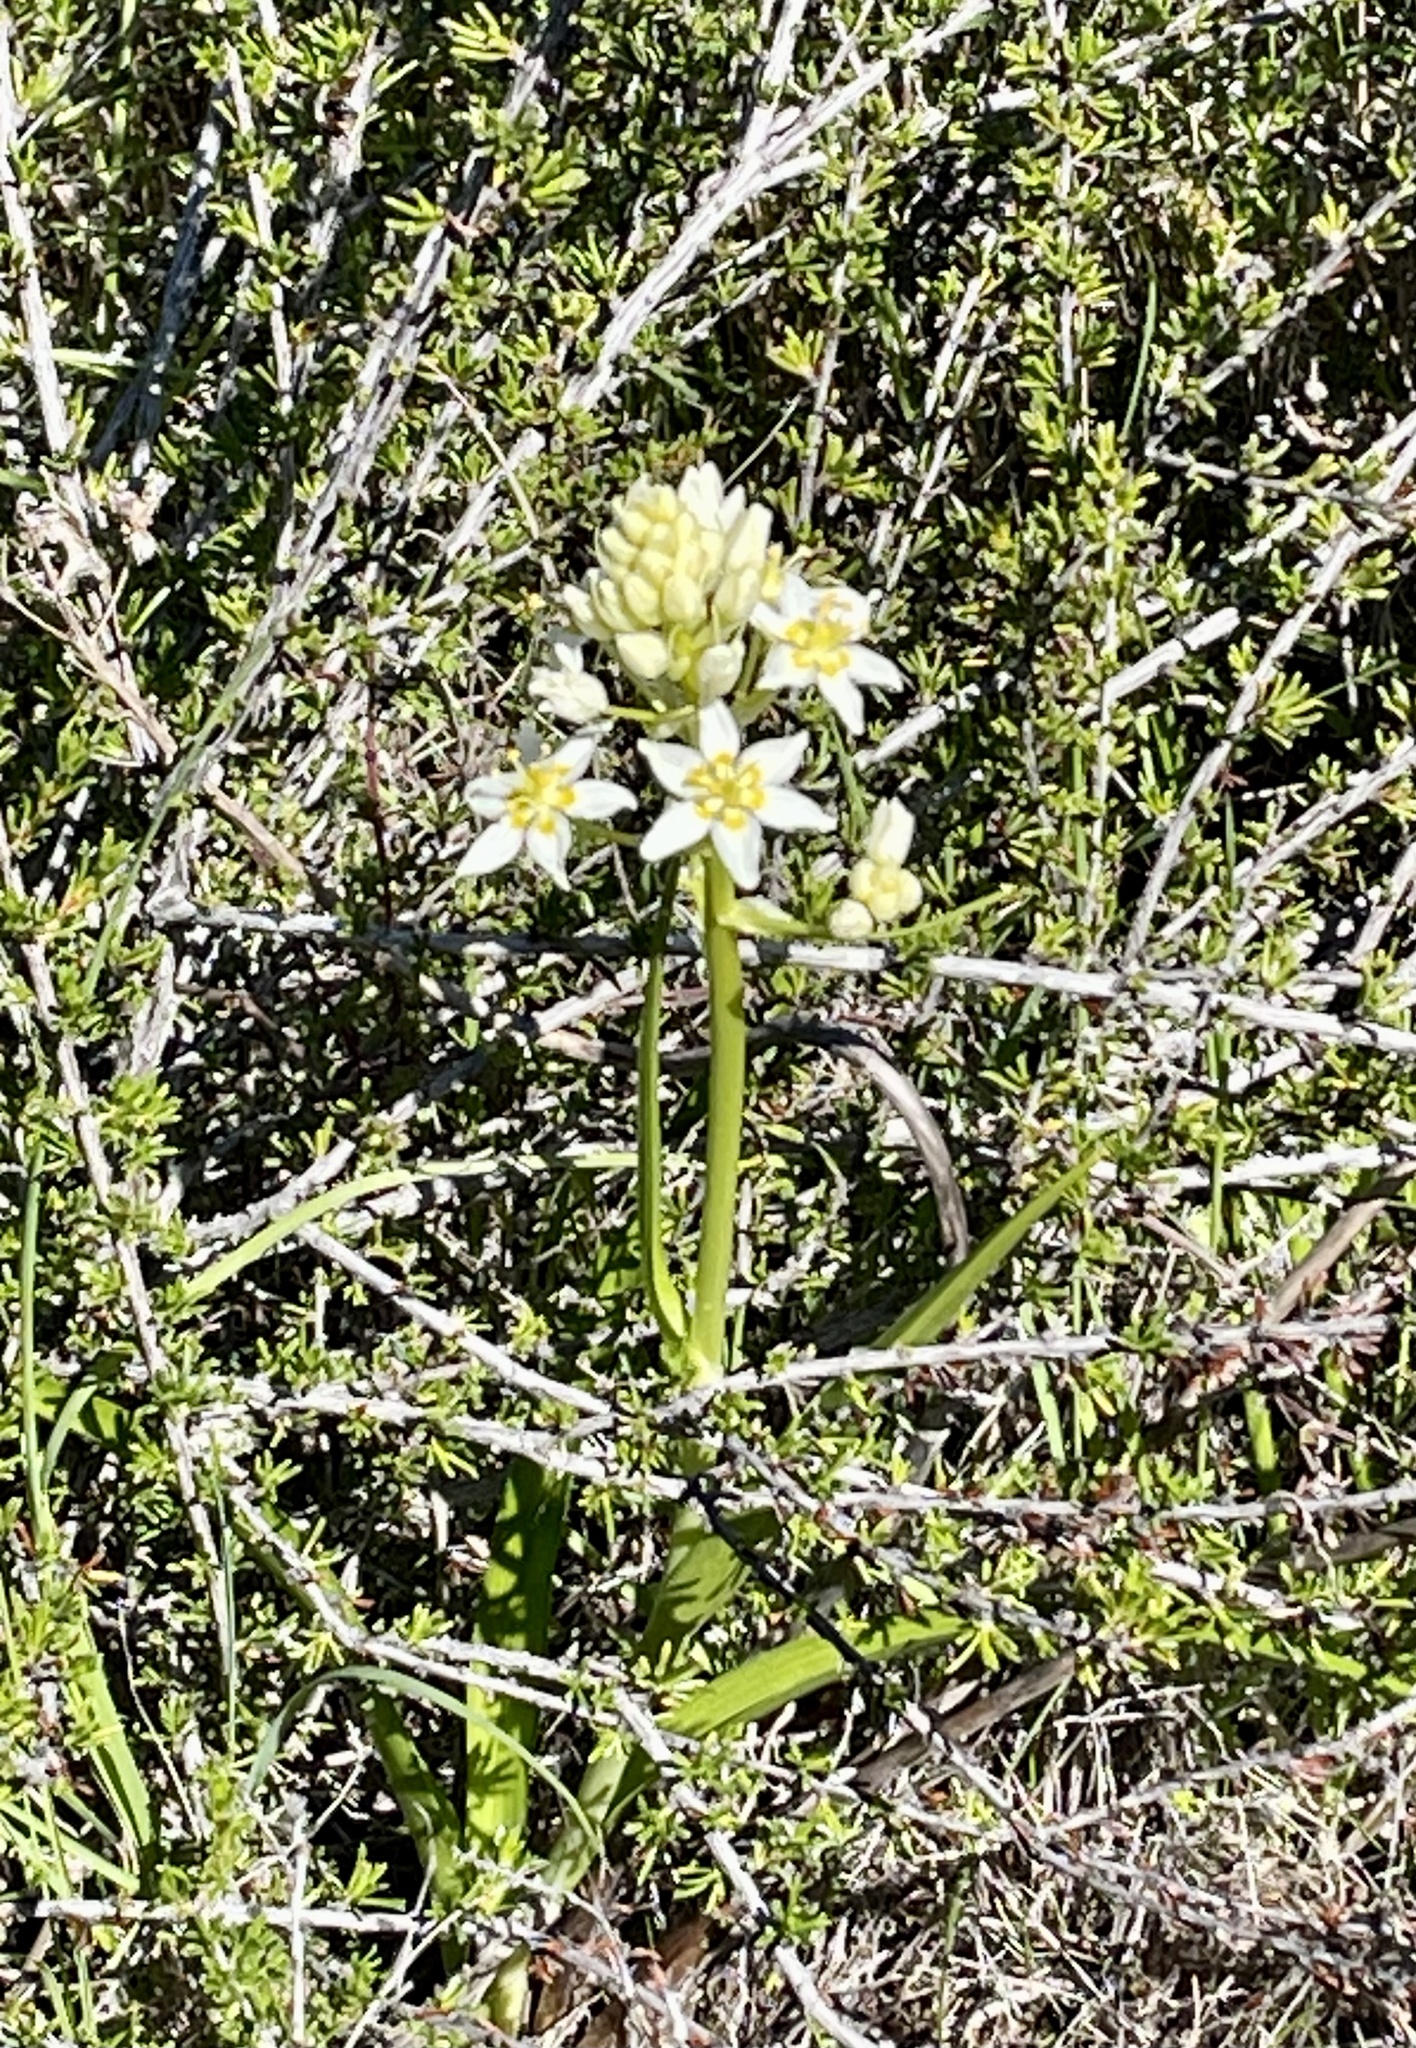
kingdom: Plantae
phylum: Tracheophyta
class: Liliopsida
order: Liliales
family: Melanthiaceae
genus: Toxicoscordion
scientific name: Toxicoscordion fremontii
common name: Fremont's death camas
